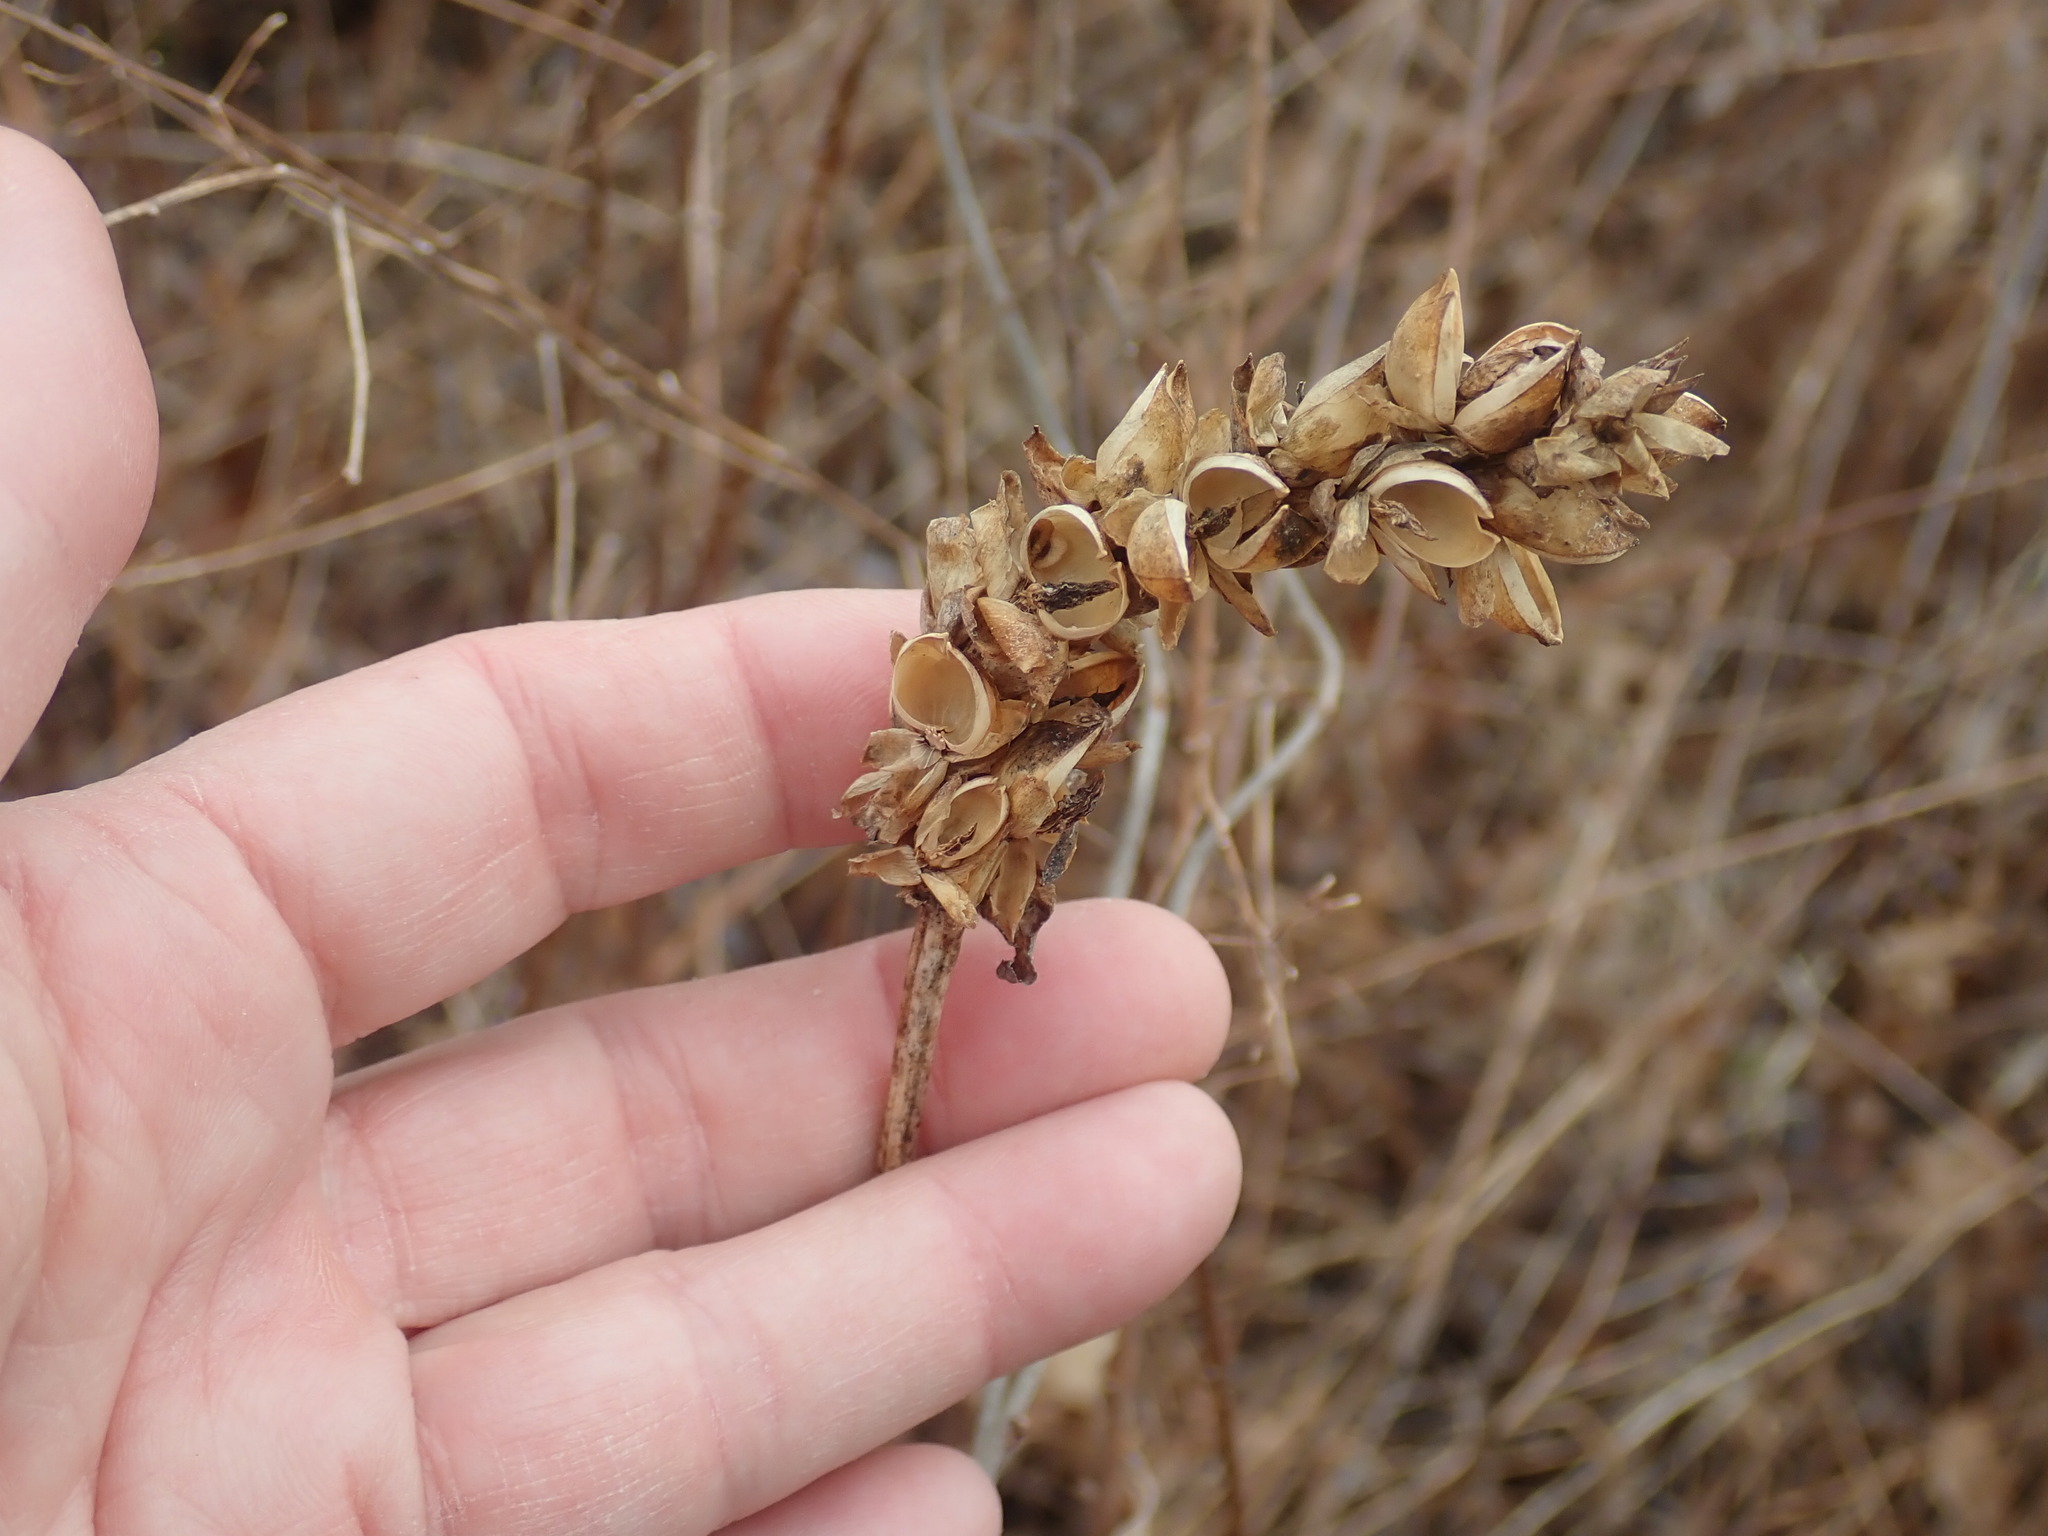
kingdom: Plantae
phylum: Tracheophyta
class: Magnoliopsida
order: Lamiales
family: Plantaginaceae
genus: Chelone
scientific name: Chelone glabra
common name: Snakehead
